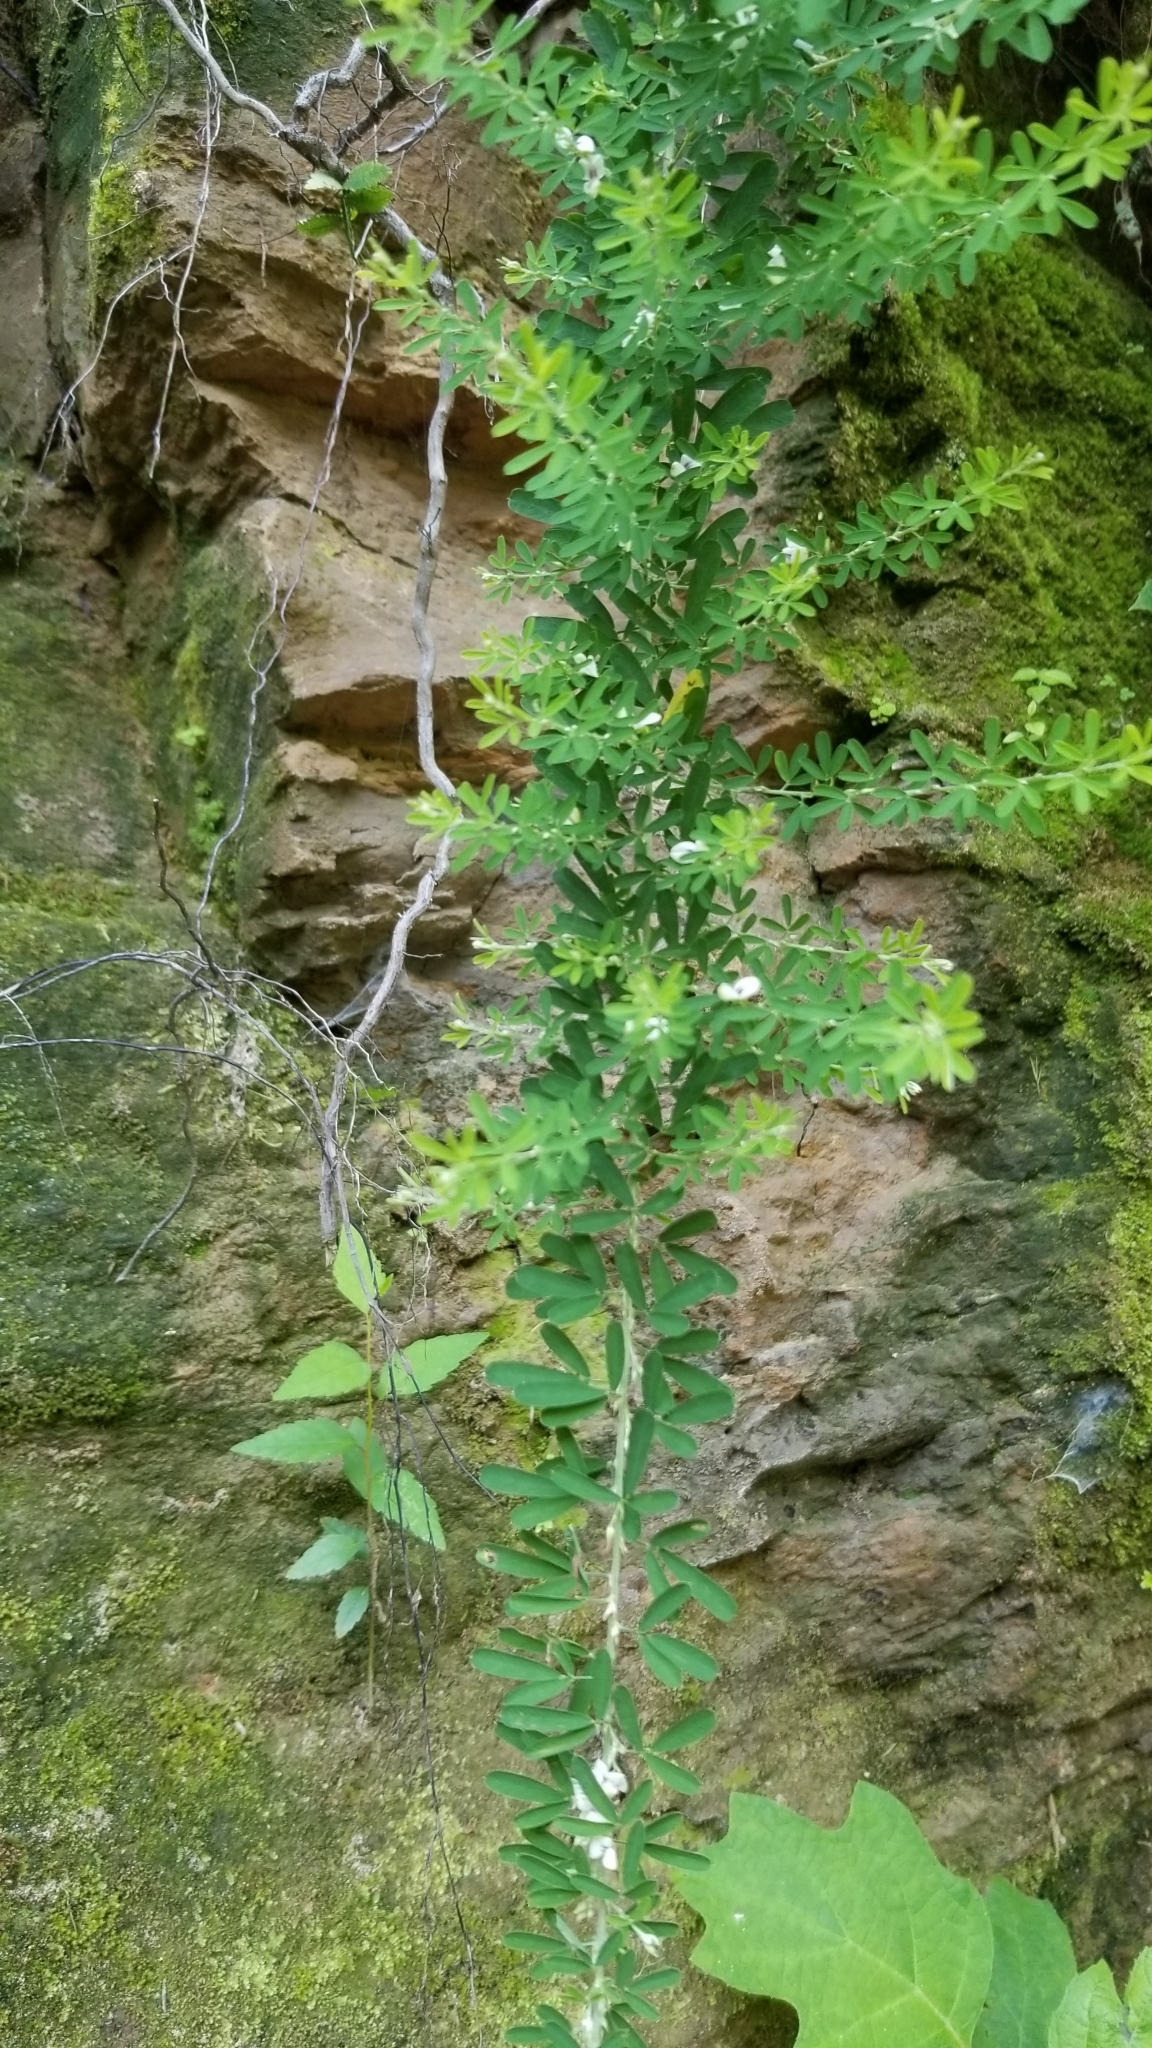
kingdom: Plantae
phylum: Tracheophyta
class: Magnoliopsida
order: Fabales
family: Fabaceae
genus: Lespedeza
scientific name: Lespedeza cuneata
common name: Chinese bush-clover
